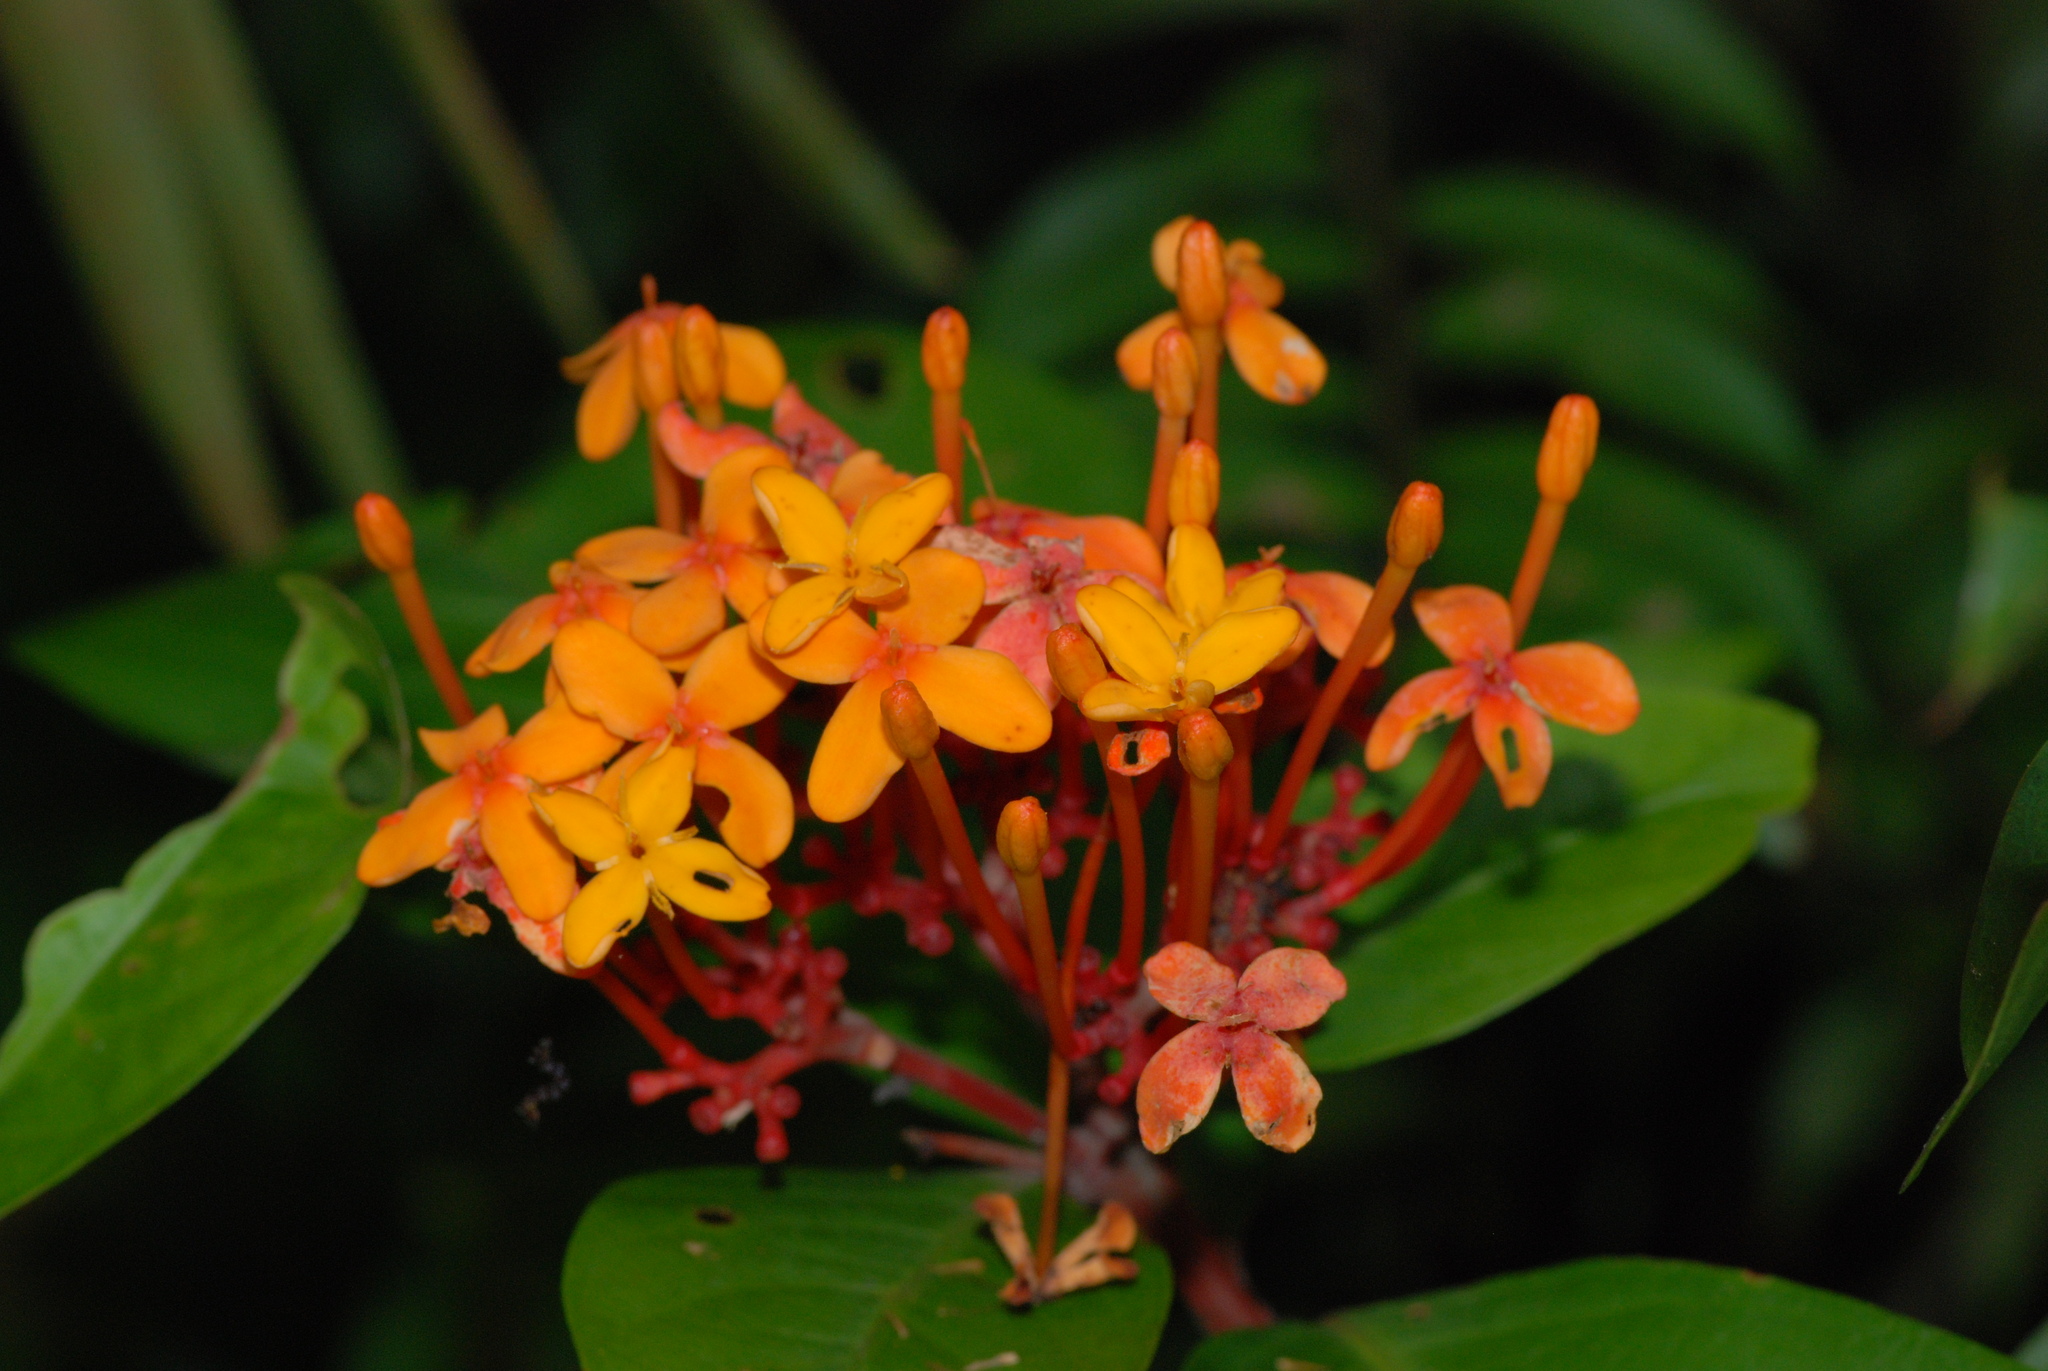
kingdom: Plantae
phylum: Tracheophyta
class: Magnoliopsida
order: Gentianales
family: Rubiaceae
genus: Ixora
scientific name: Ixora congesta
